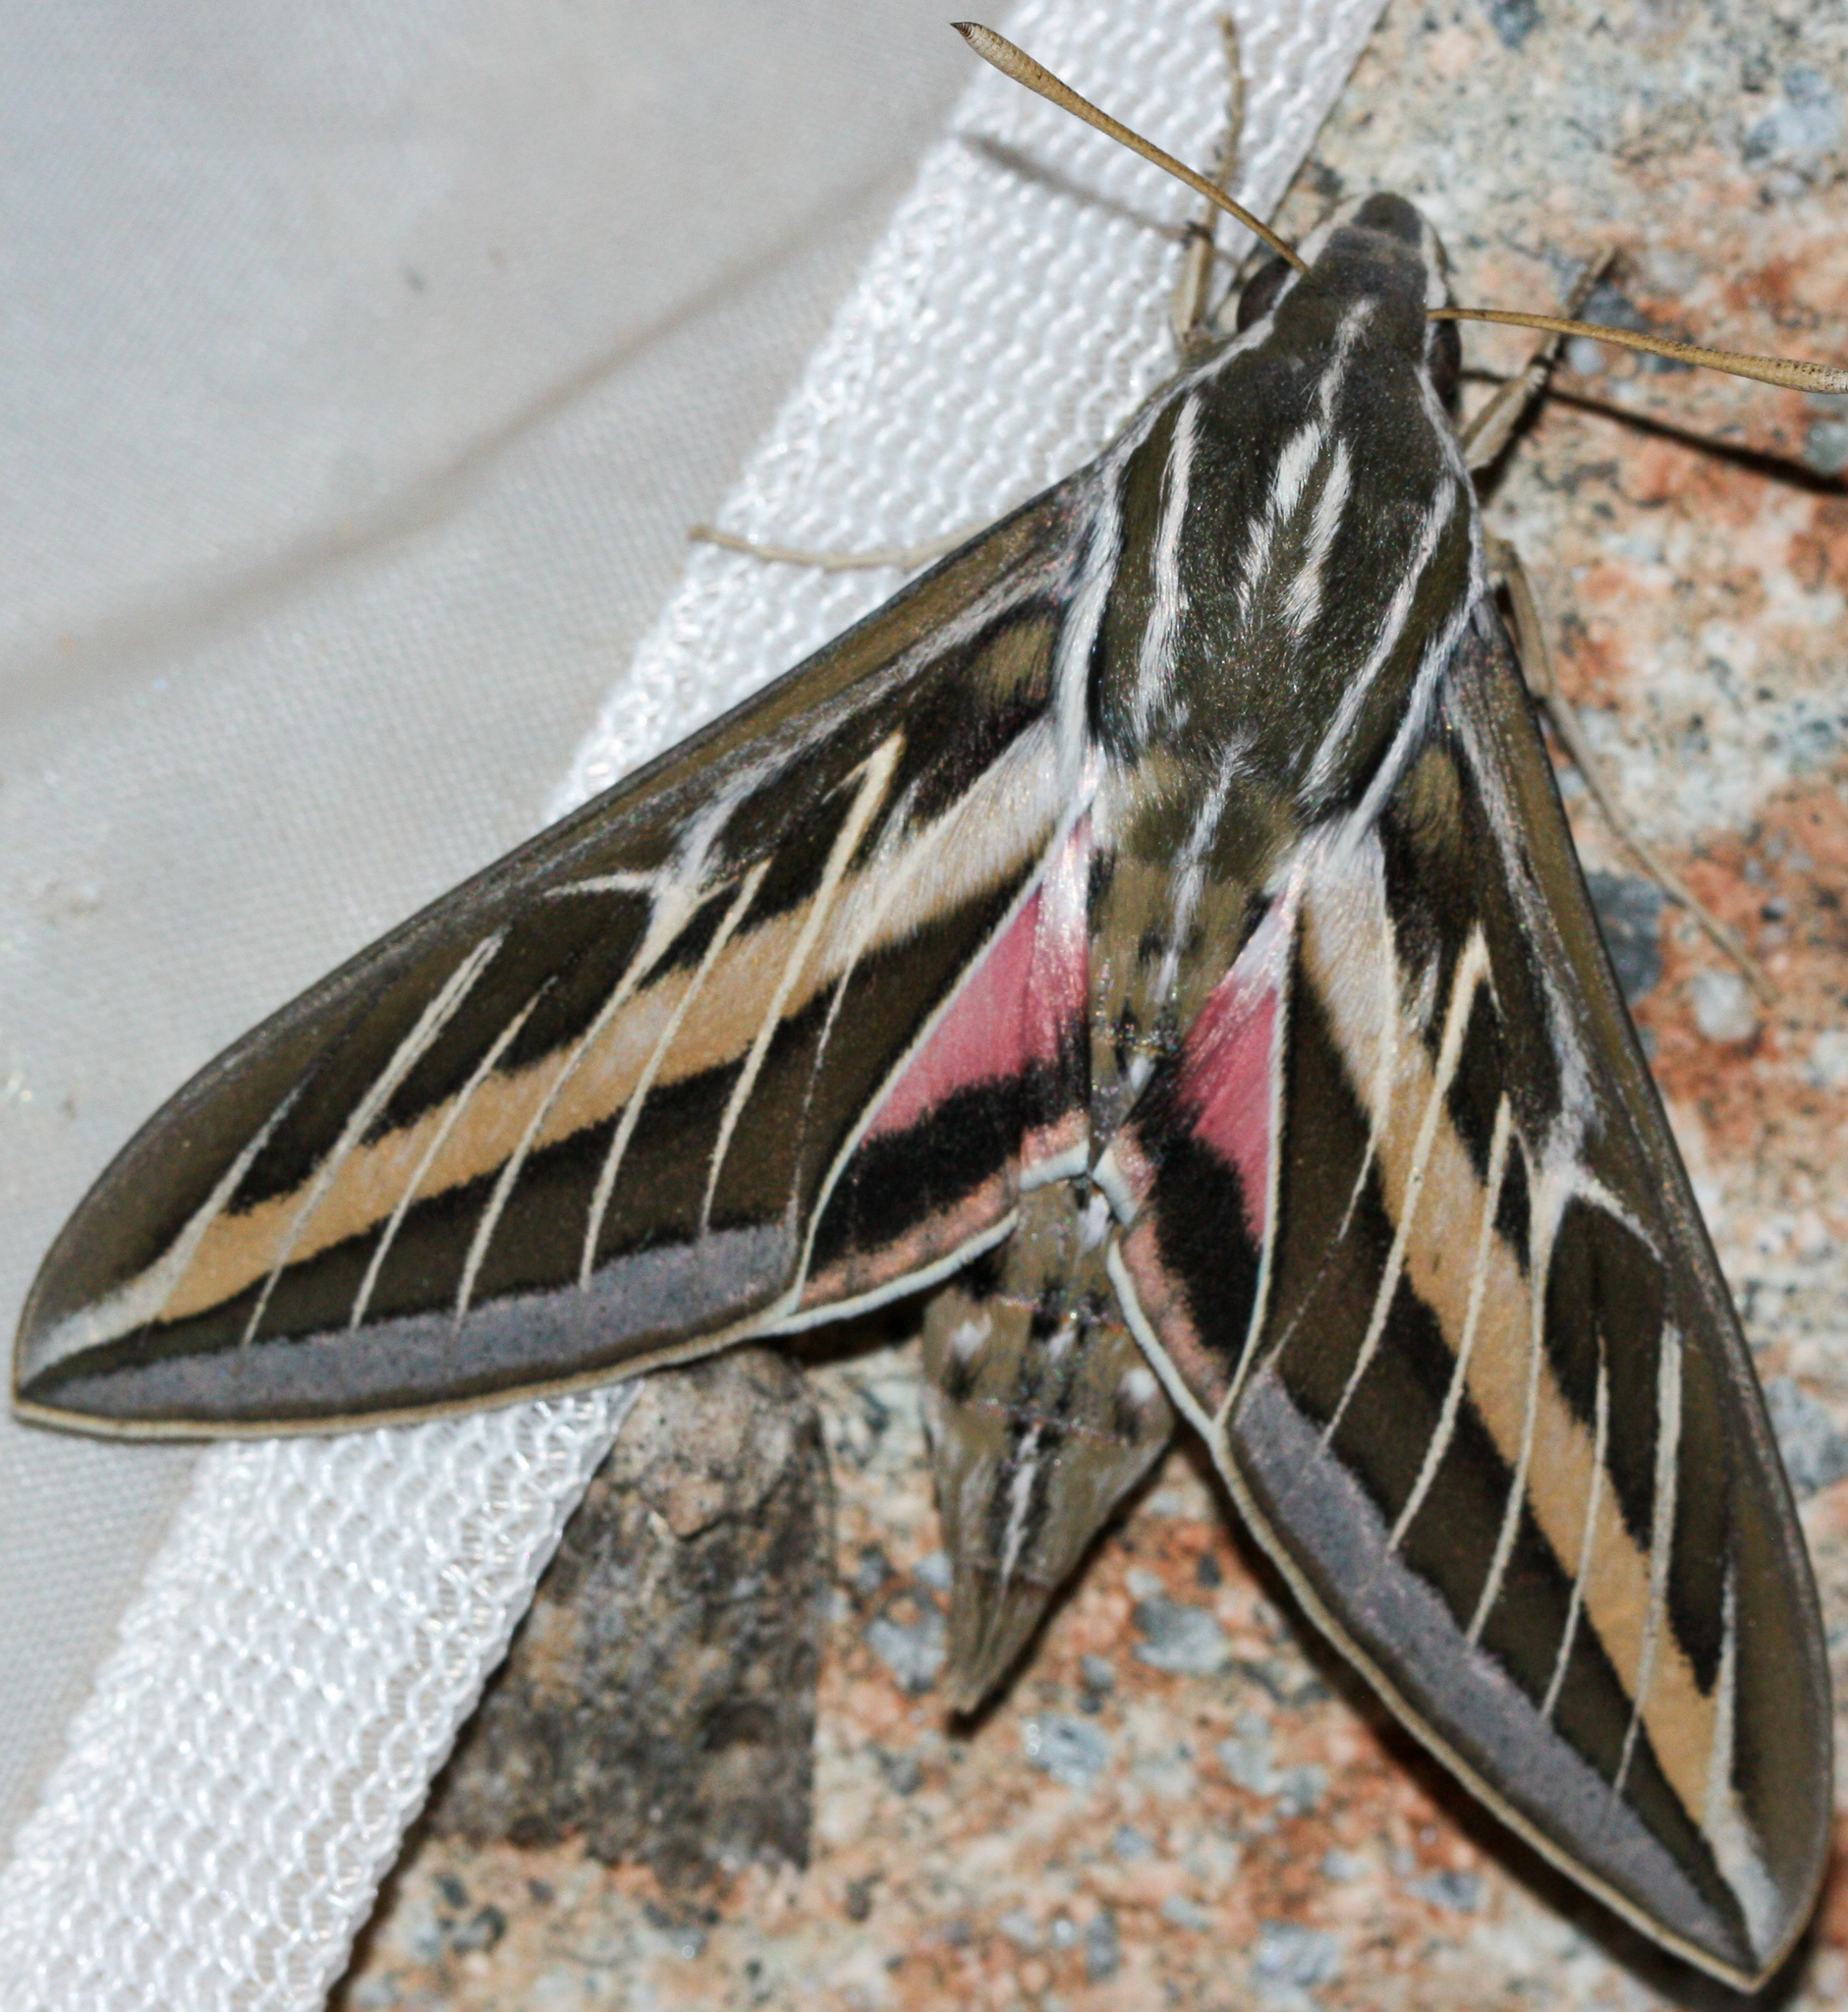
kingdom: Animalia
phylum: Arthropoda
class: Insecta
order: Lepidoptera
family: Sphingidae
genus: Hyles
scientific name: Hyles lineata
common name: White-lined sphinx
